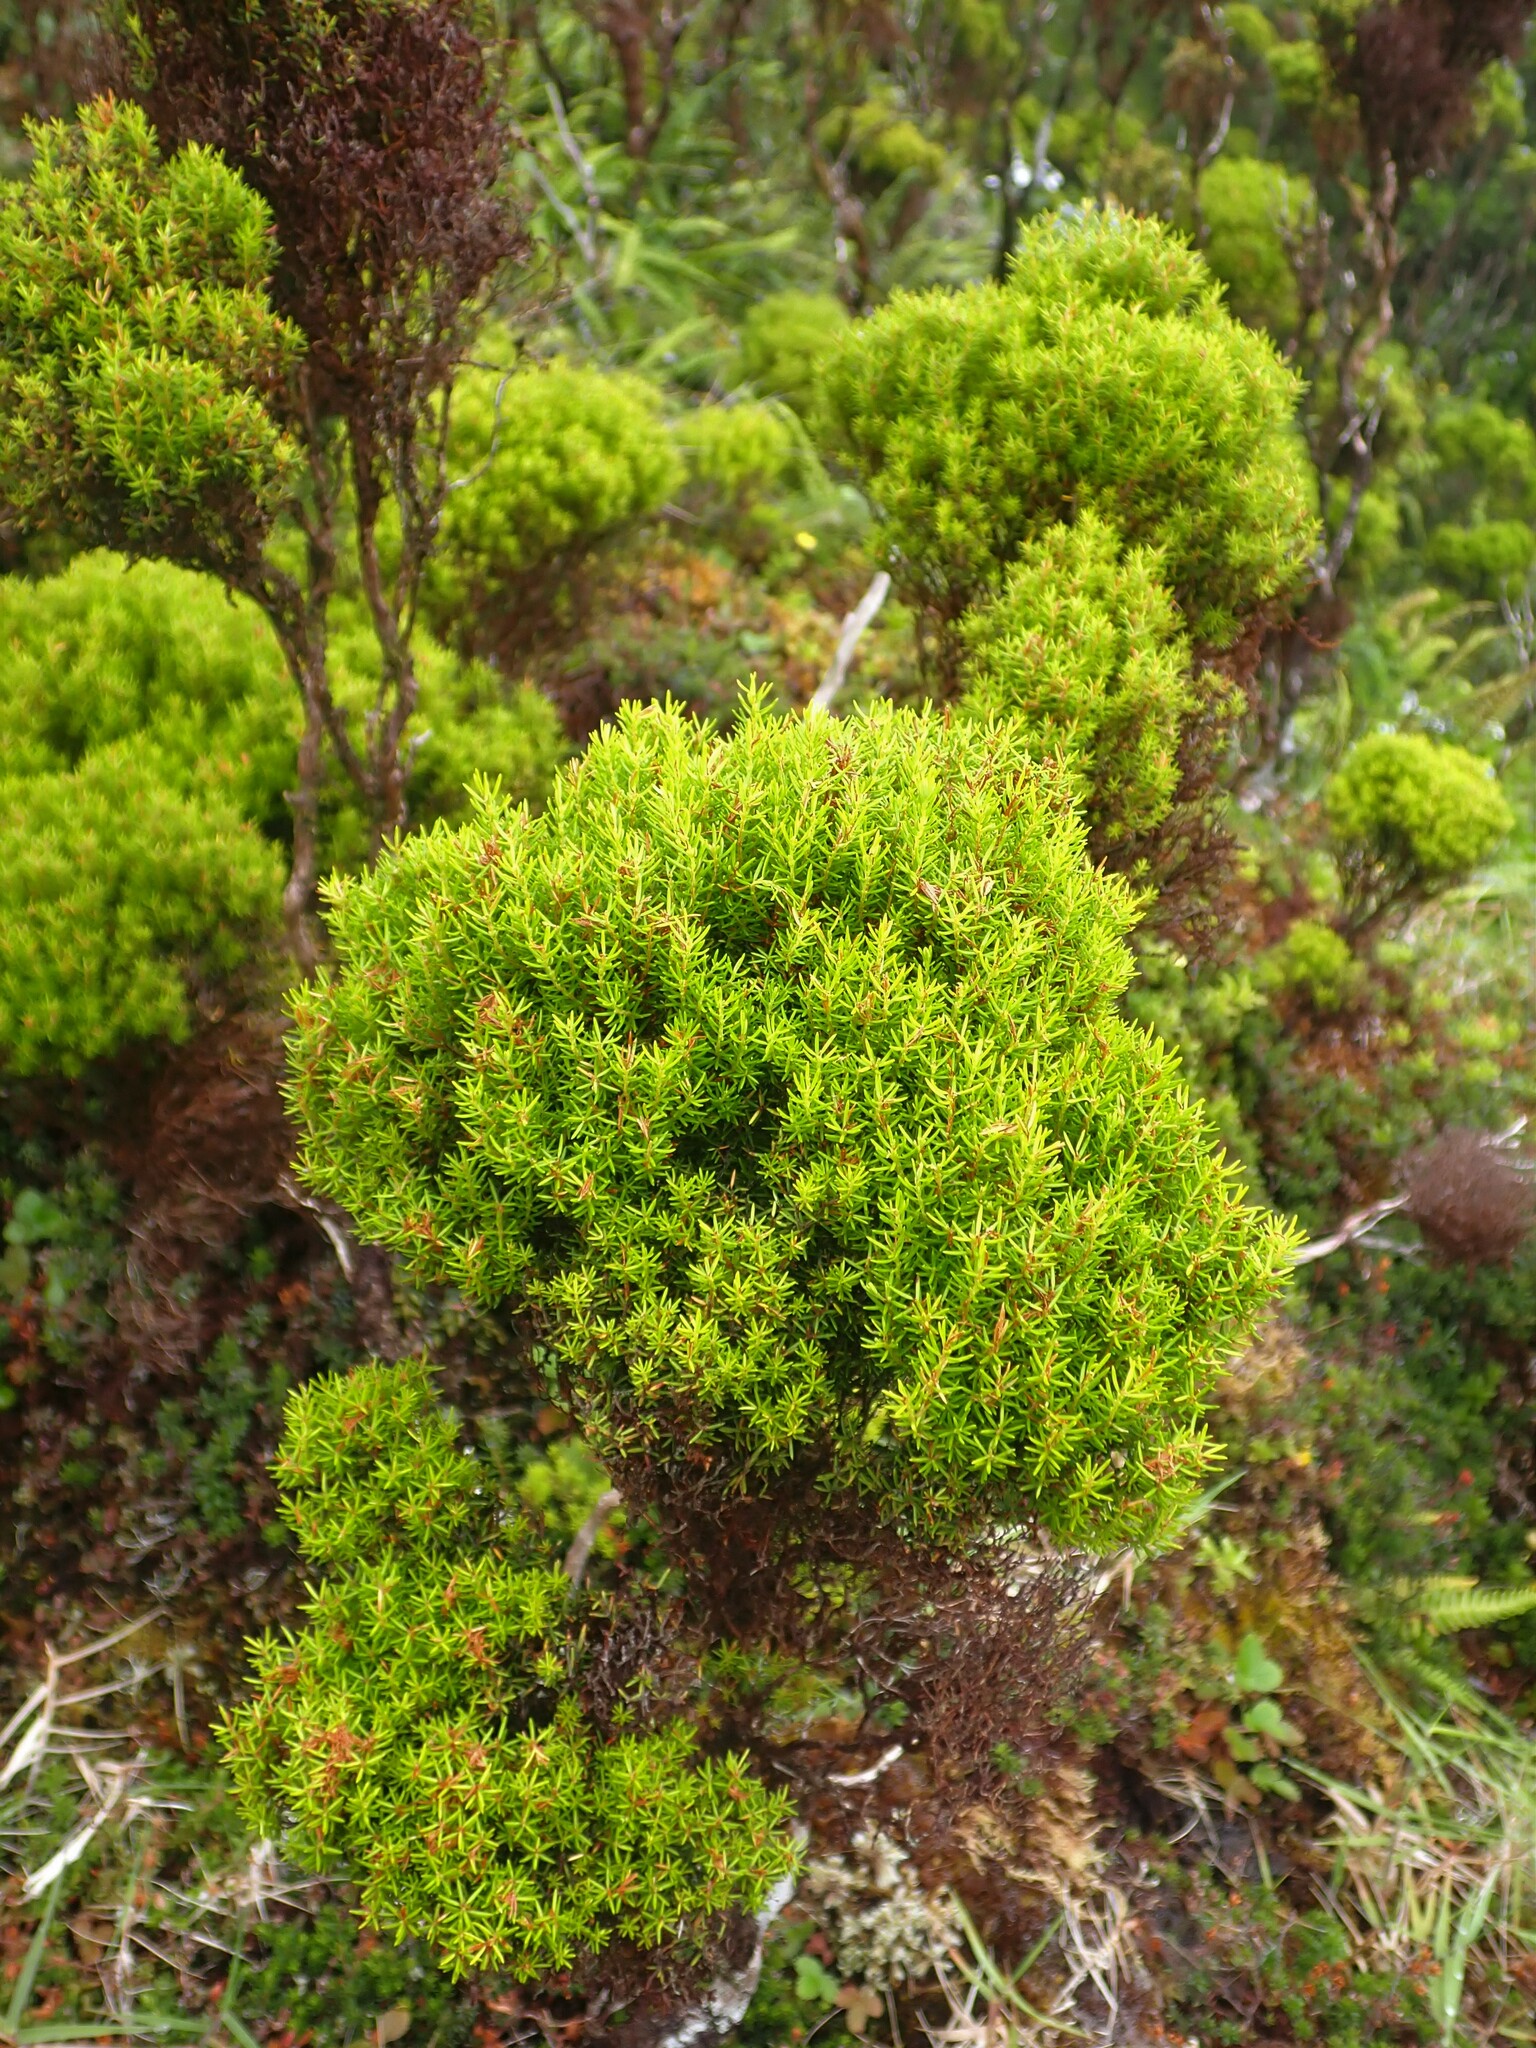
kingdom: Plantae
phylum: Tracheophyta
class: Magnoliopsida
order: Ericales
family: Ericaceae
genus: Erica
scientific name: Erica azorica
